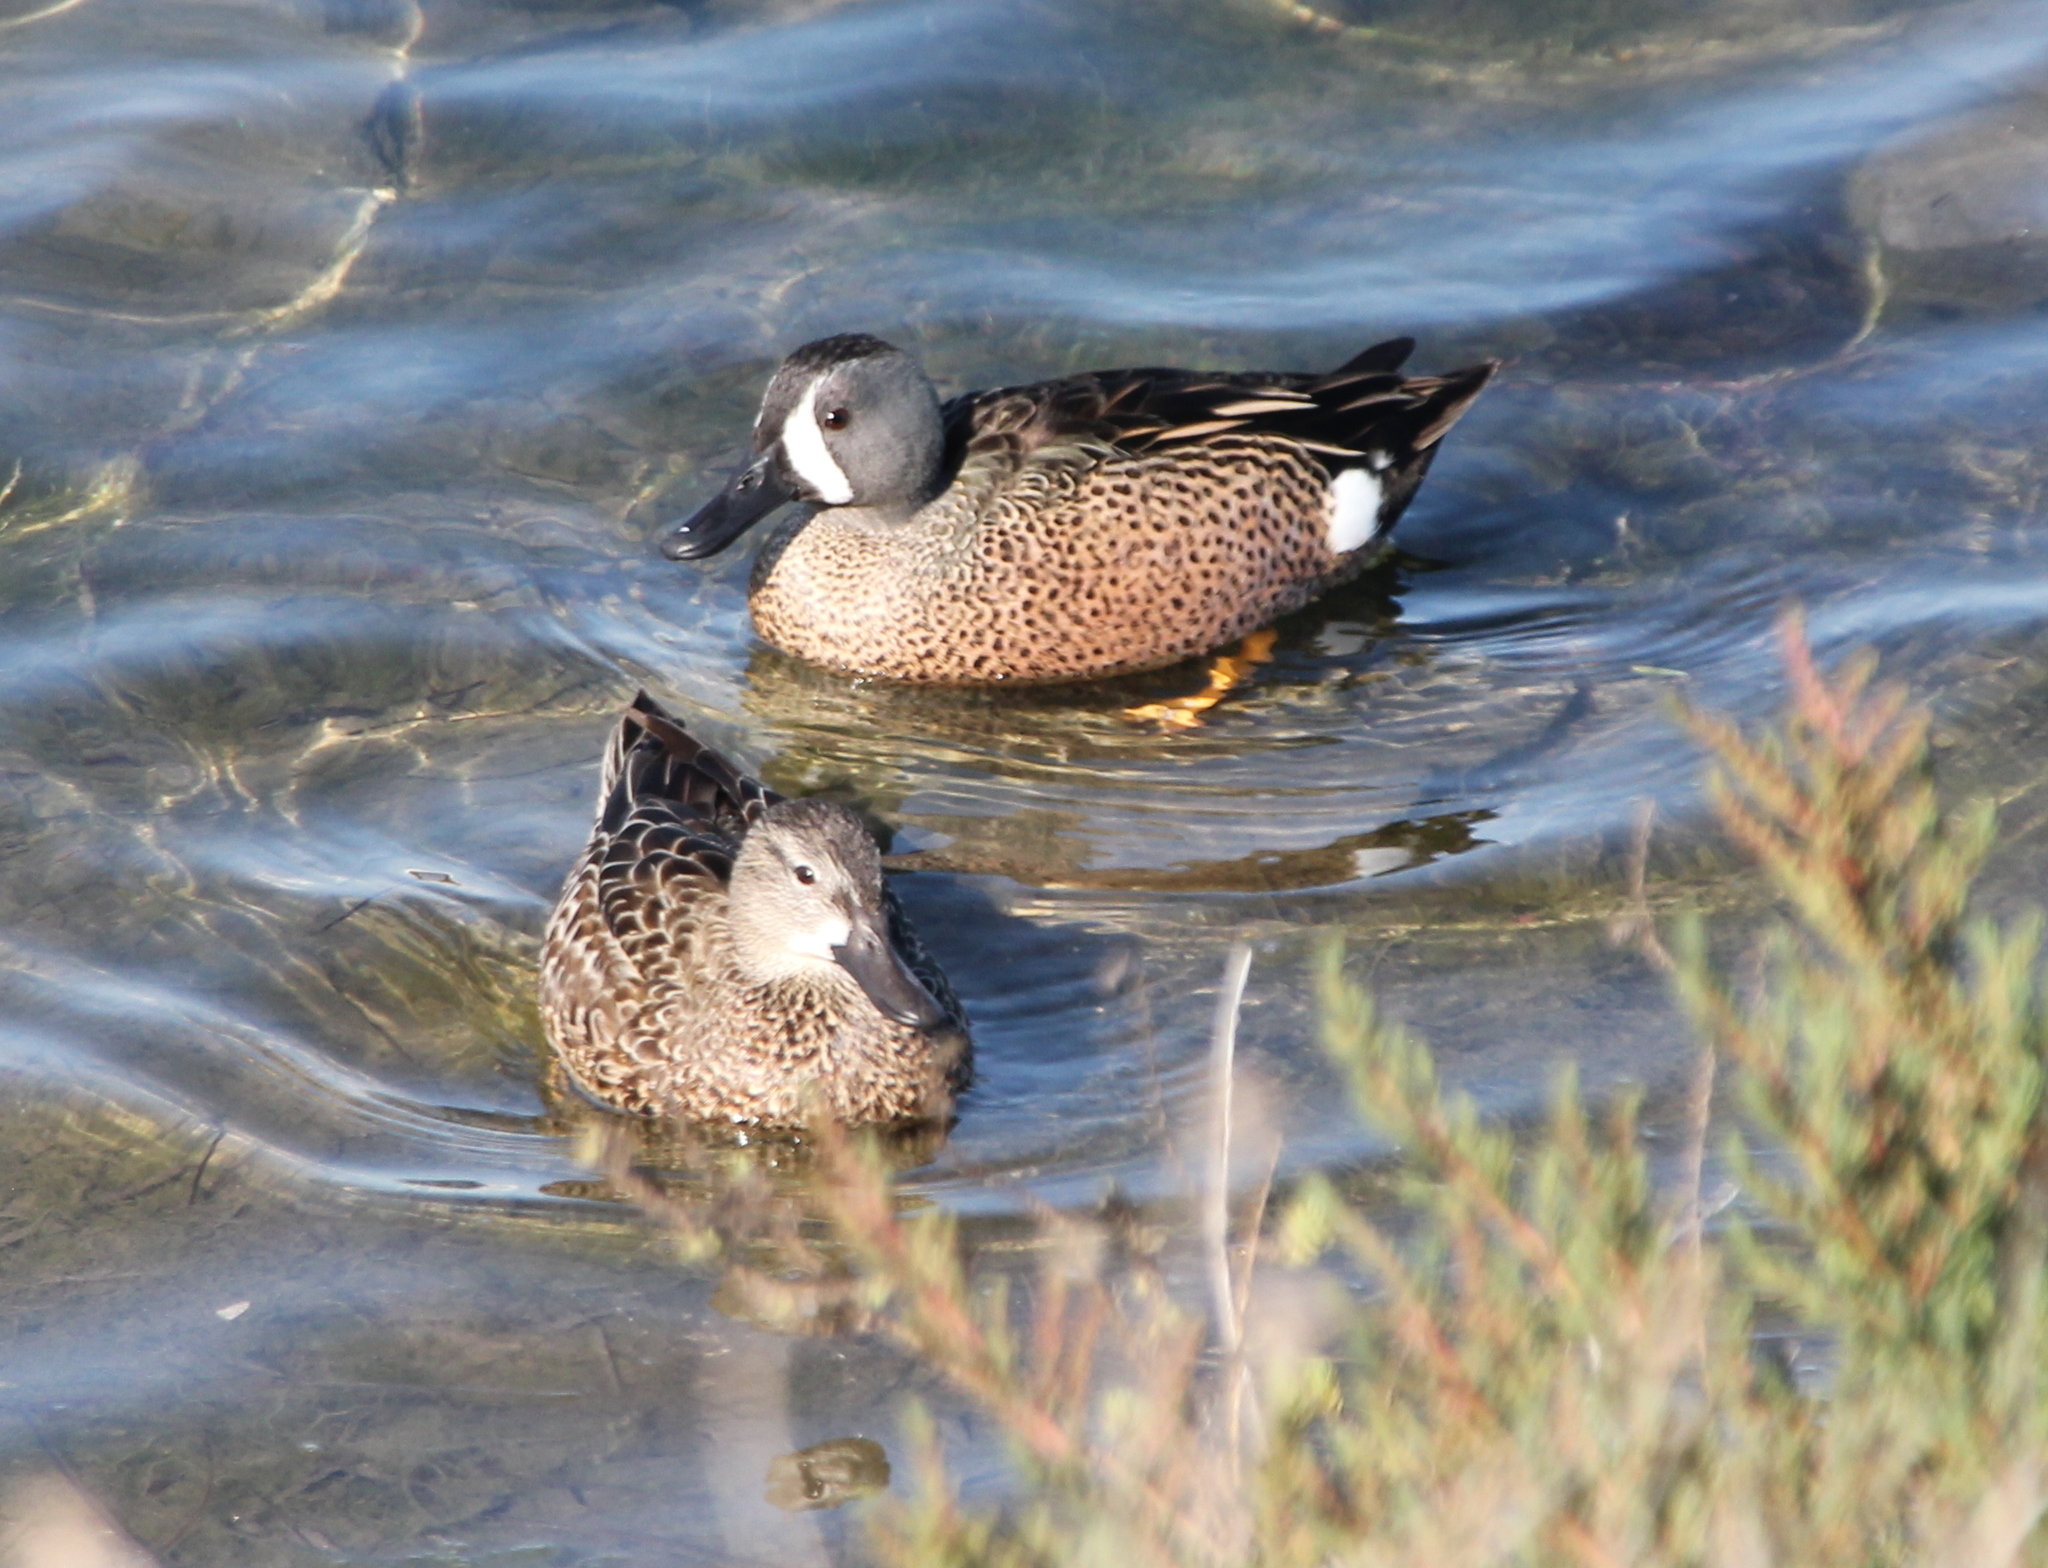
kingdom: Animalia
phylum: Chordata
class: Aves
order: Anseriformes
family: Anatidae
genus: Spatula
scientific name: Spatula discors
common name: Blue-winged teal
